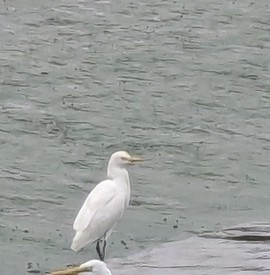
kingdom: Animalia
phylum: Chordata
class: Aves
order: Pelecaniformes
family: Ardeidae
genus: Bubulcus
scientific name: Bubulcus coromandus
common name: Eastern cattle egret
